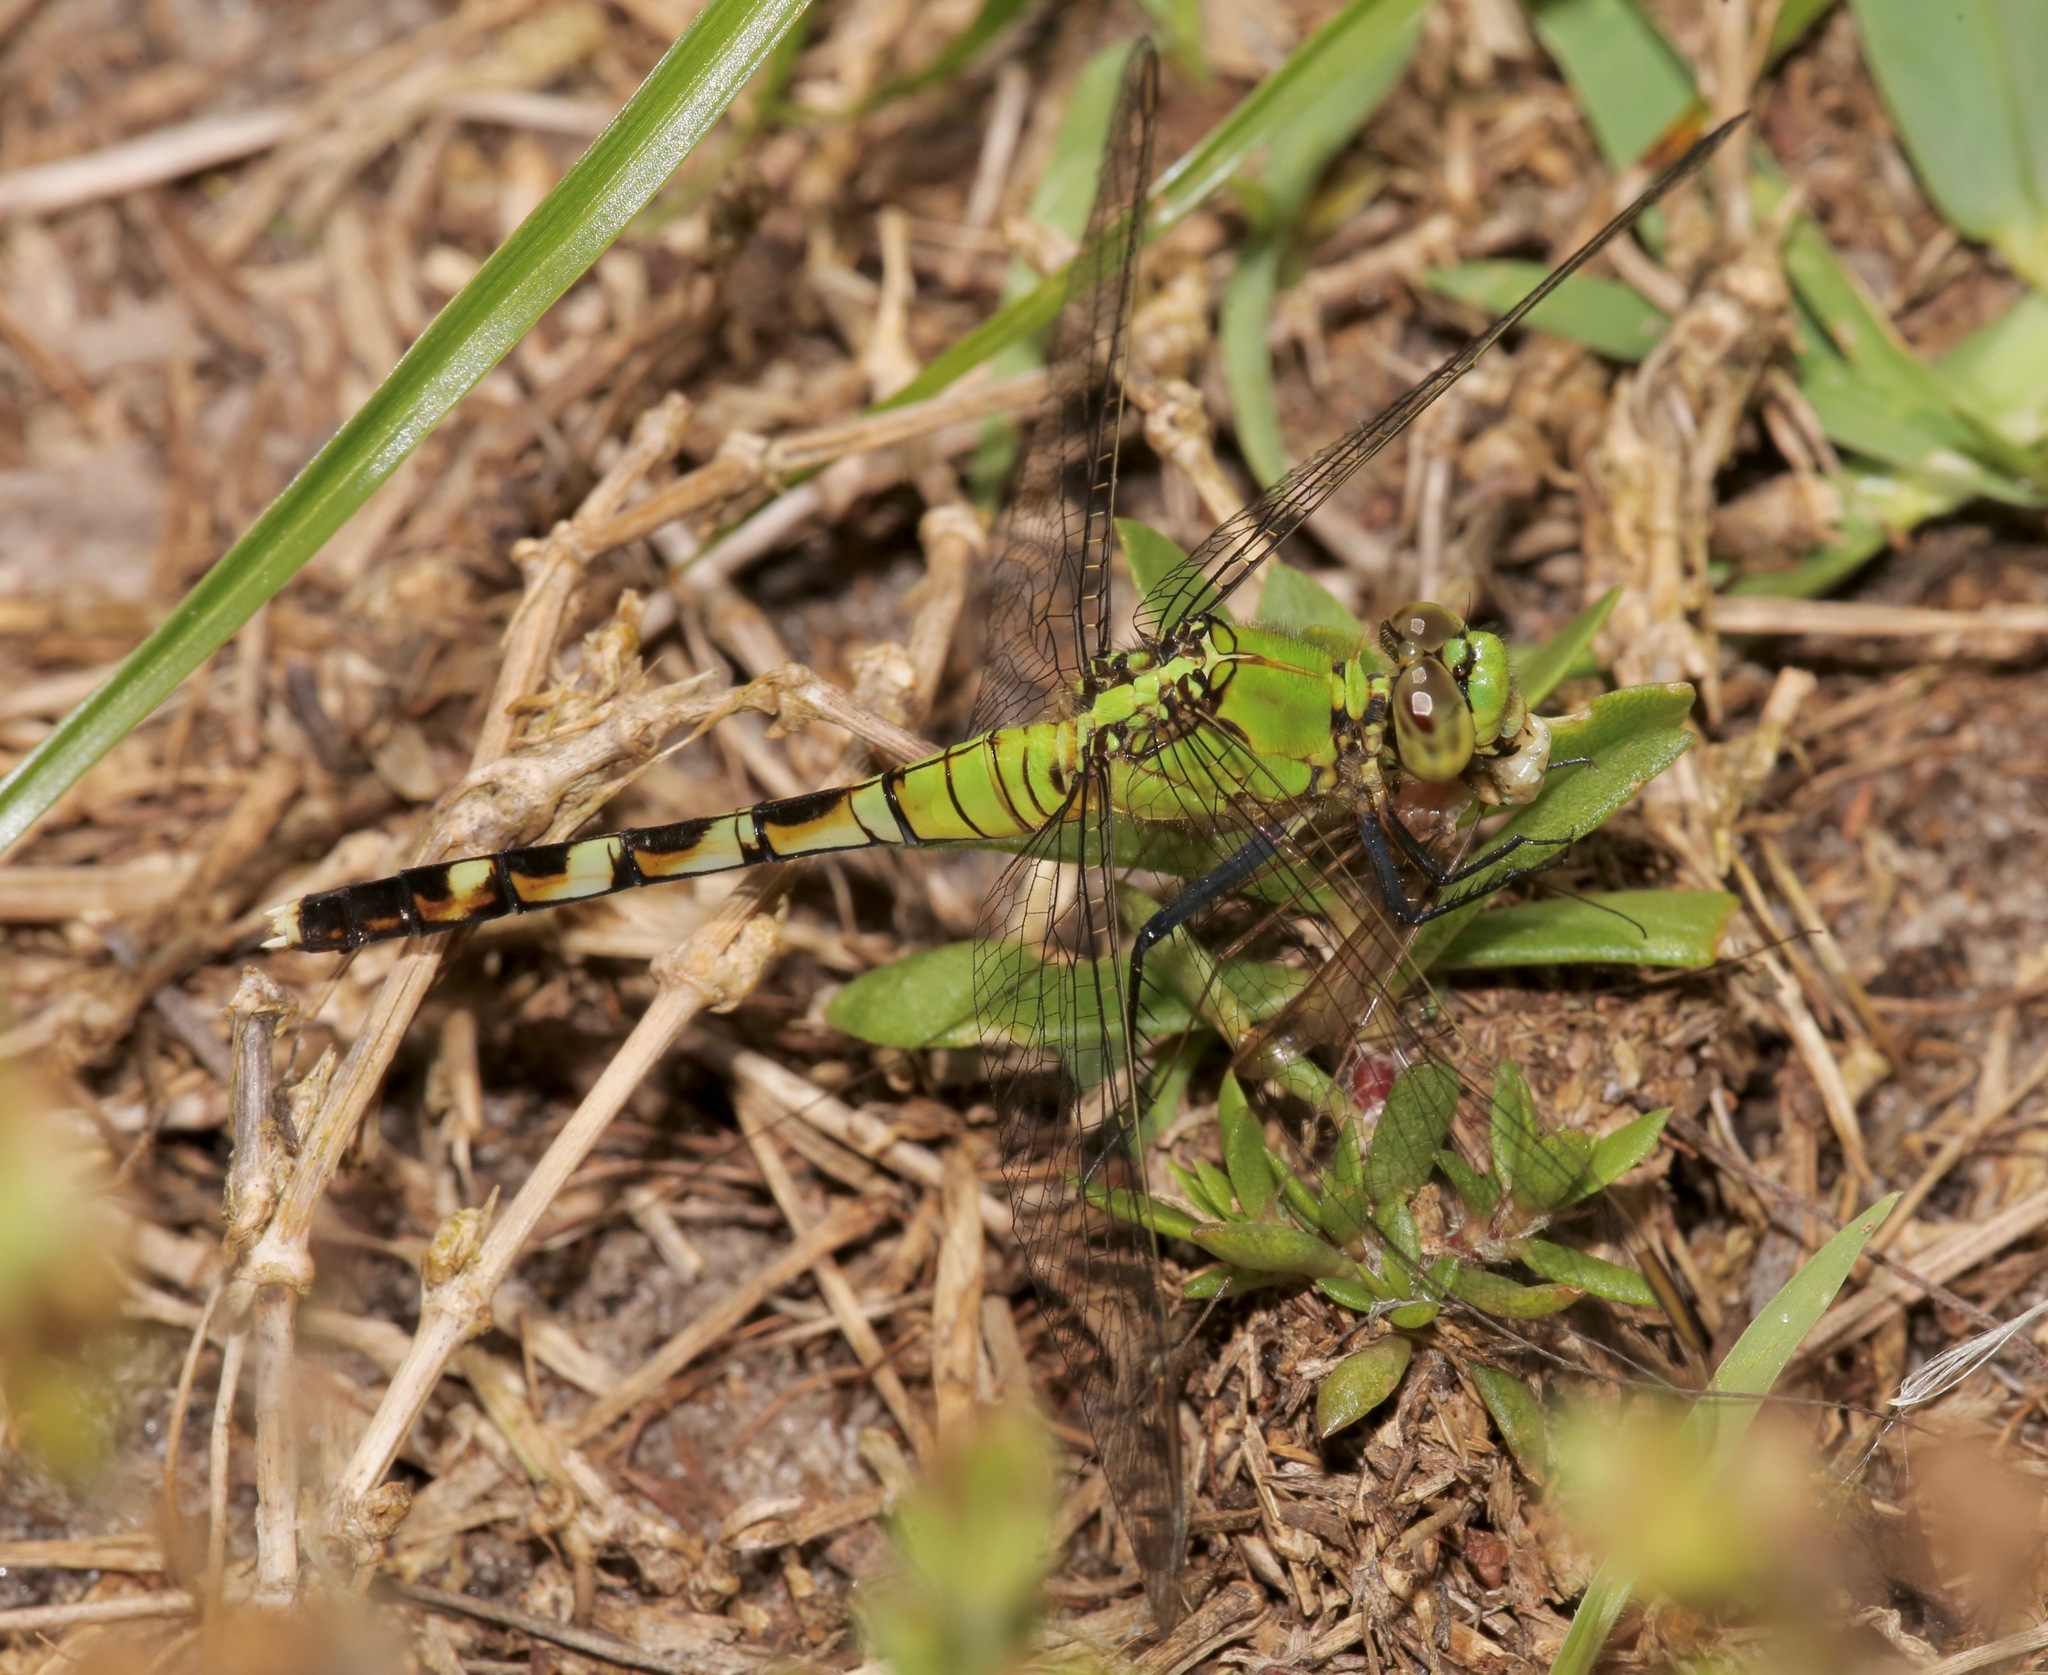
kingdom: Animalia
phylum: Arthropoda
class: Insecta
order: Odonata
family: Libellulidae
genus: Erythemis
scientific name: Erythemis simplicicollis
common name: Eastern pondhawk
